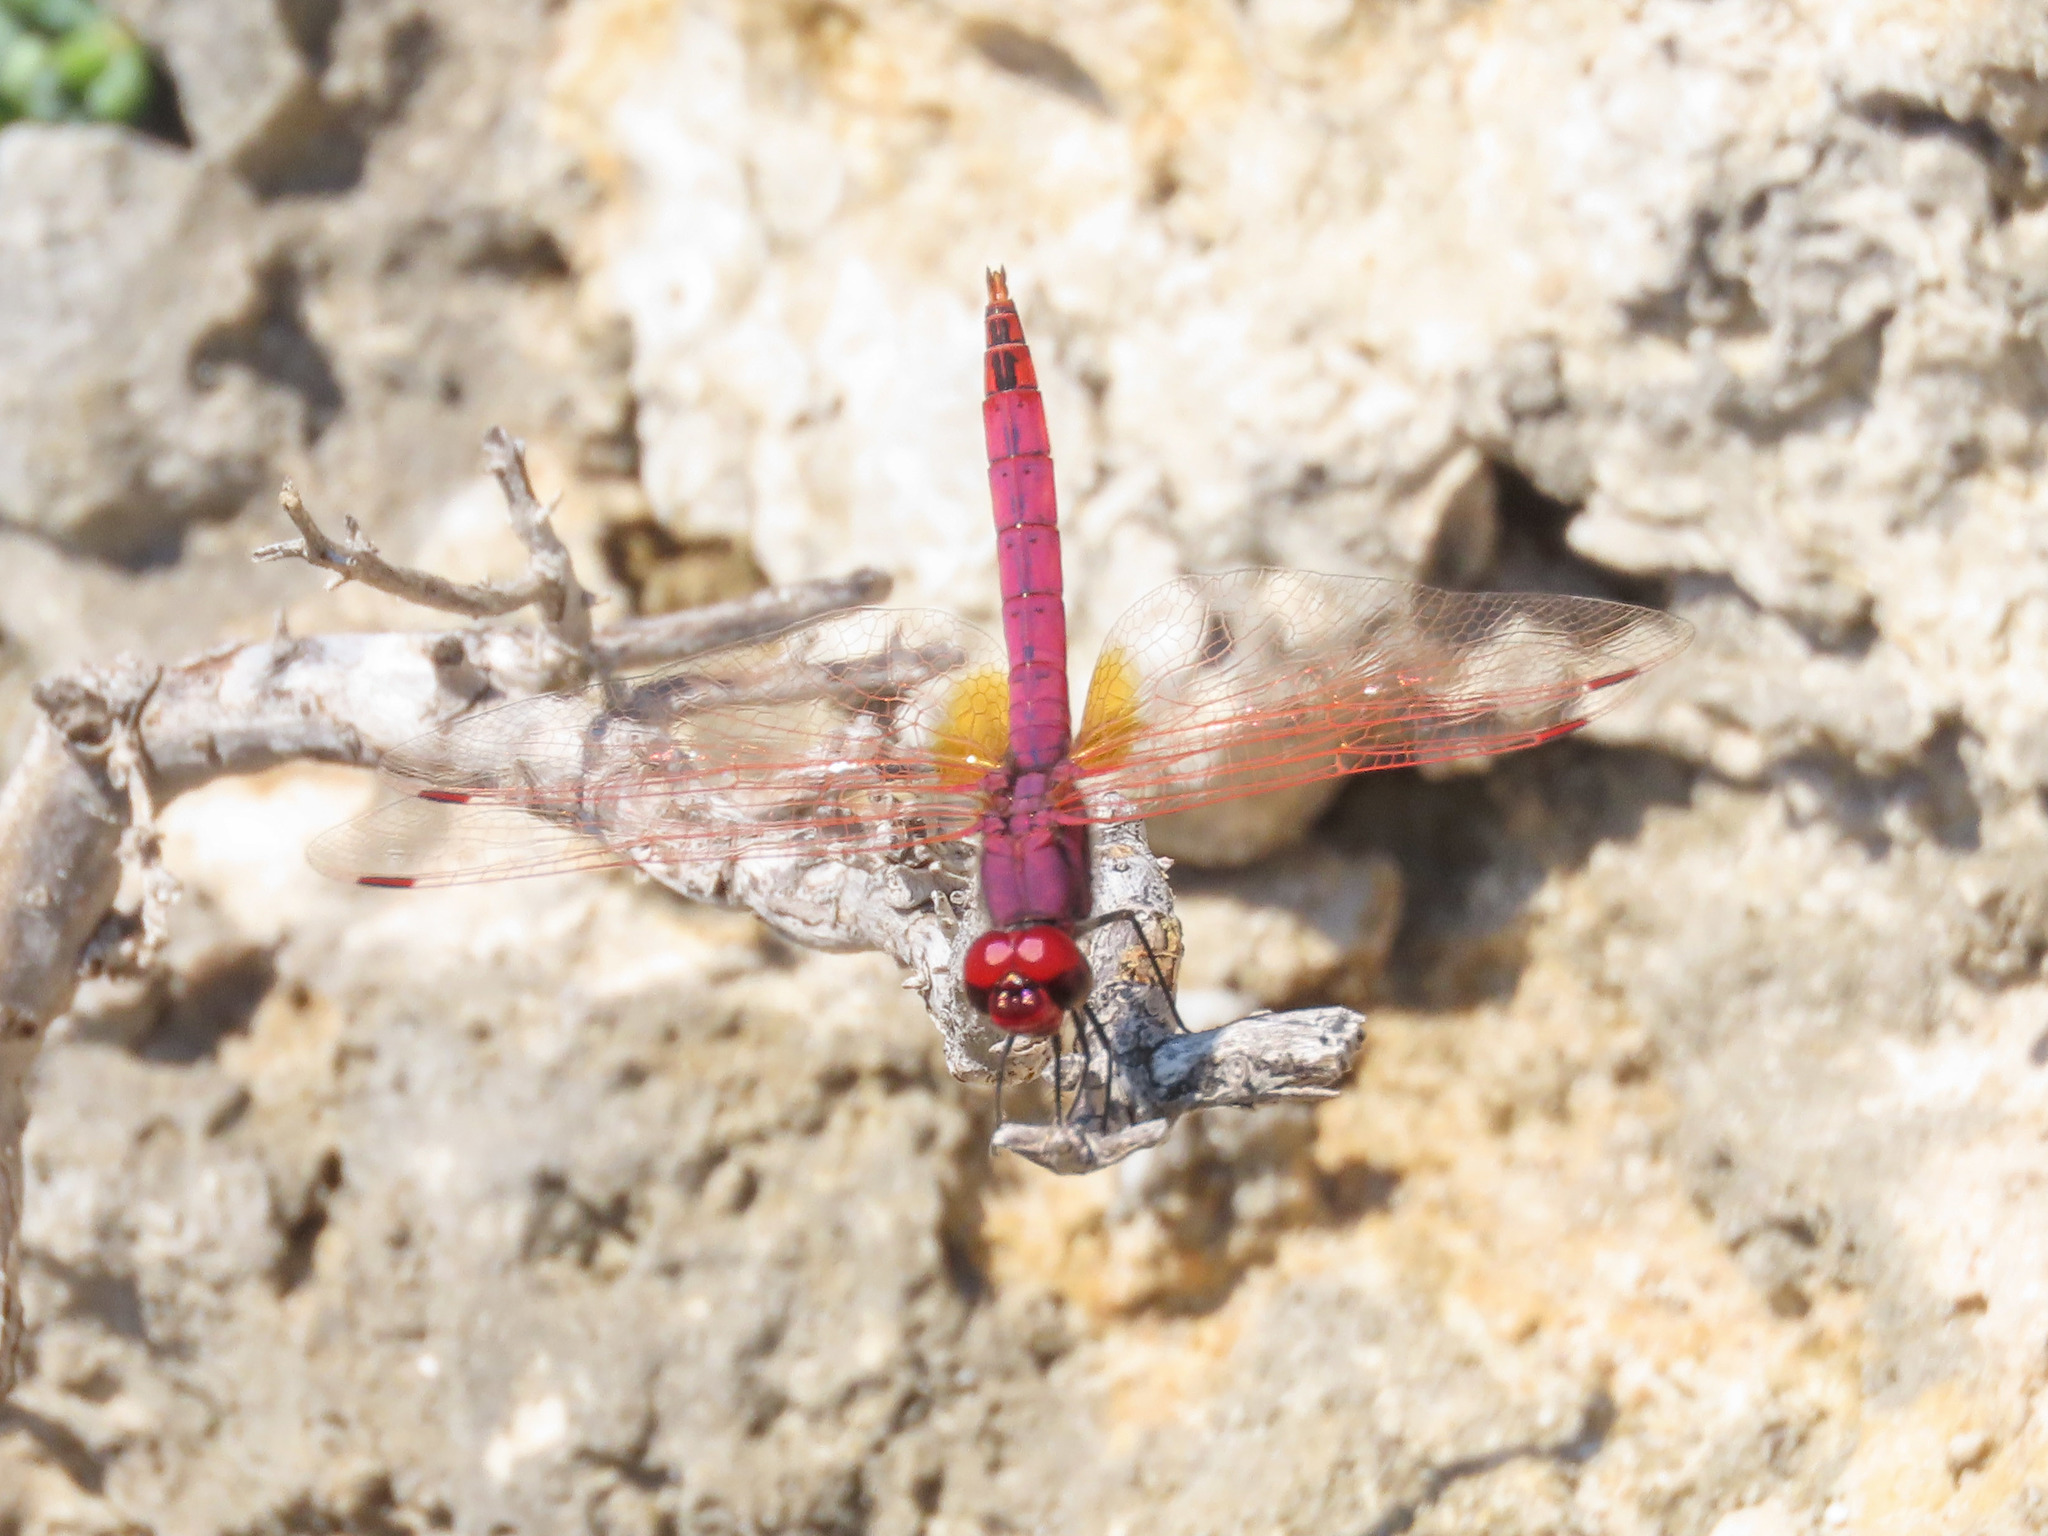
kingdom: Animalia
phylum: Arthropoda
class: Insecta
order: Odonata
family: Libellulidae
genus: Trithemis
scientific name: Trithemis annulata
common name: Violet dropwing
